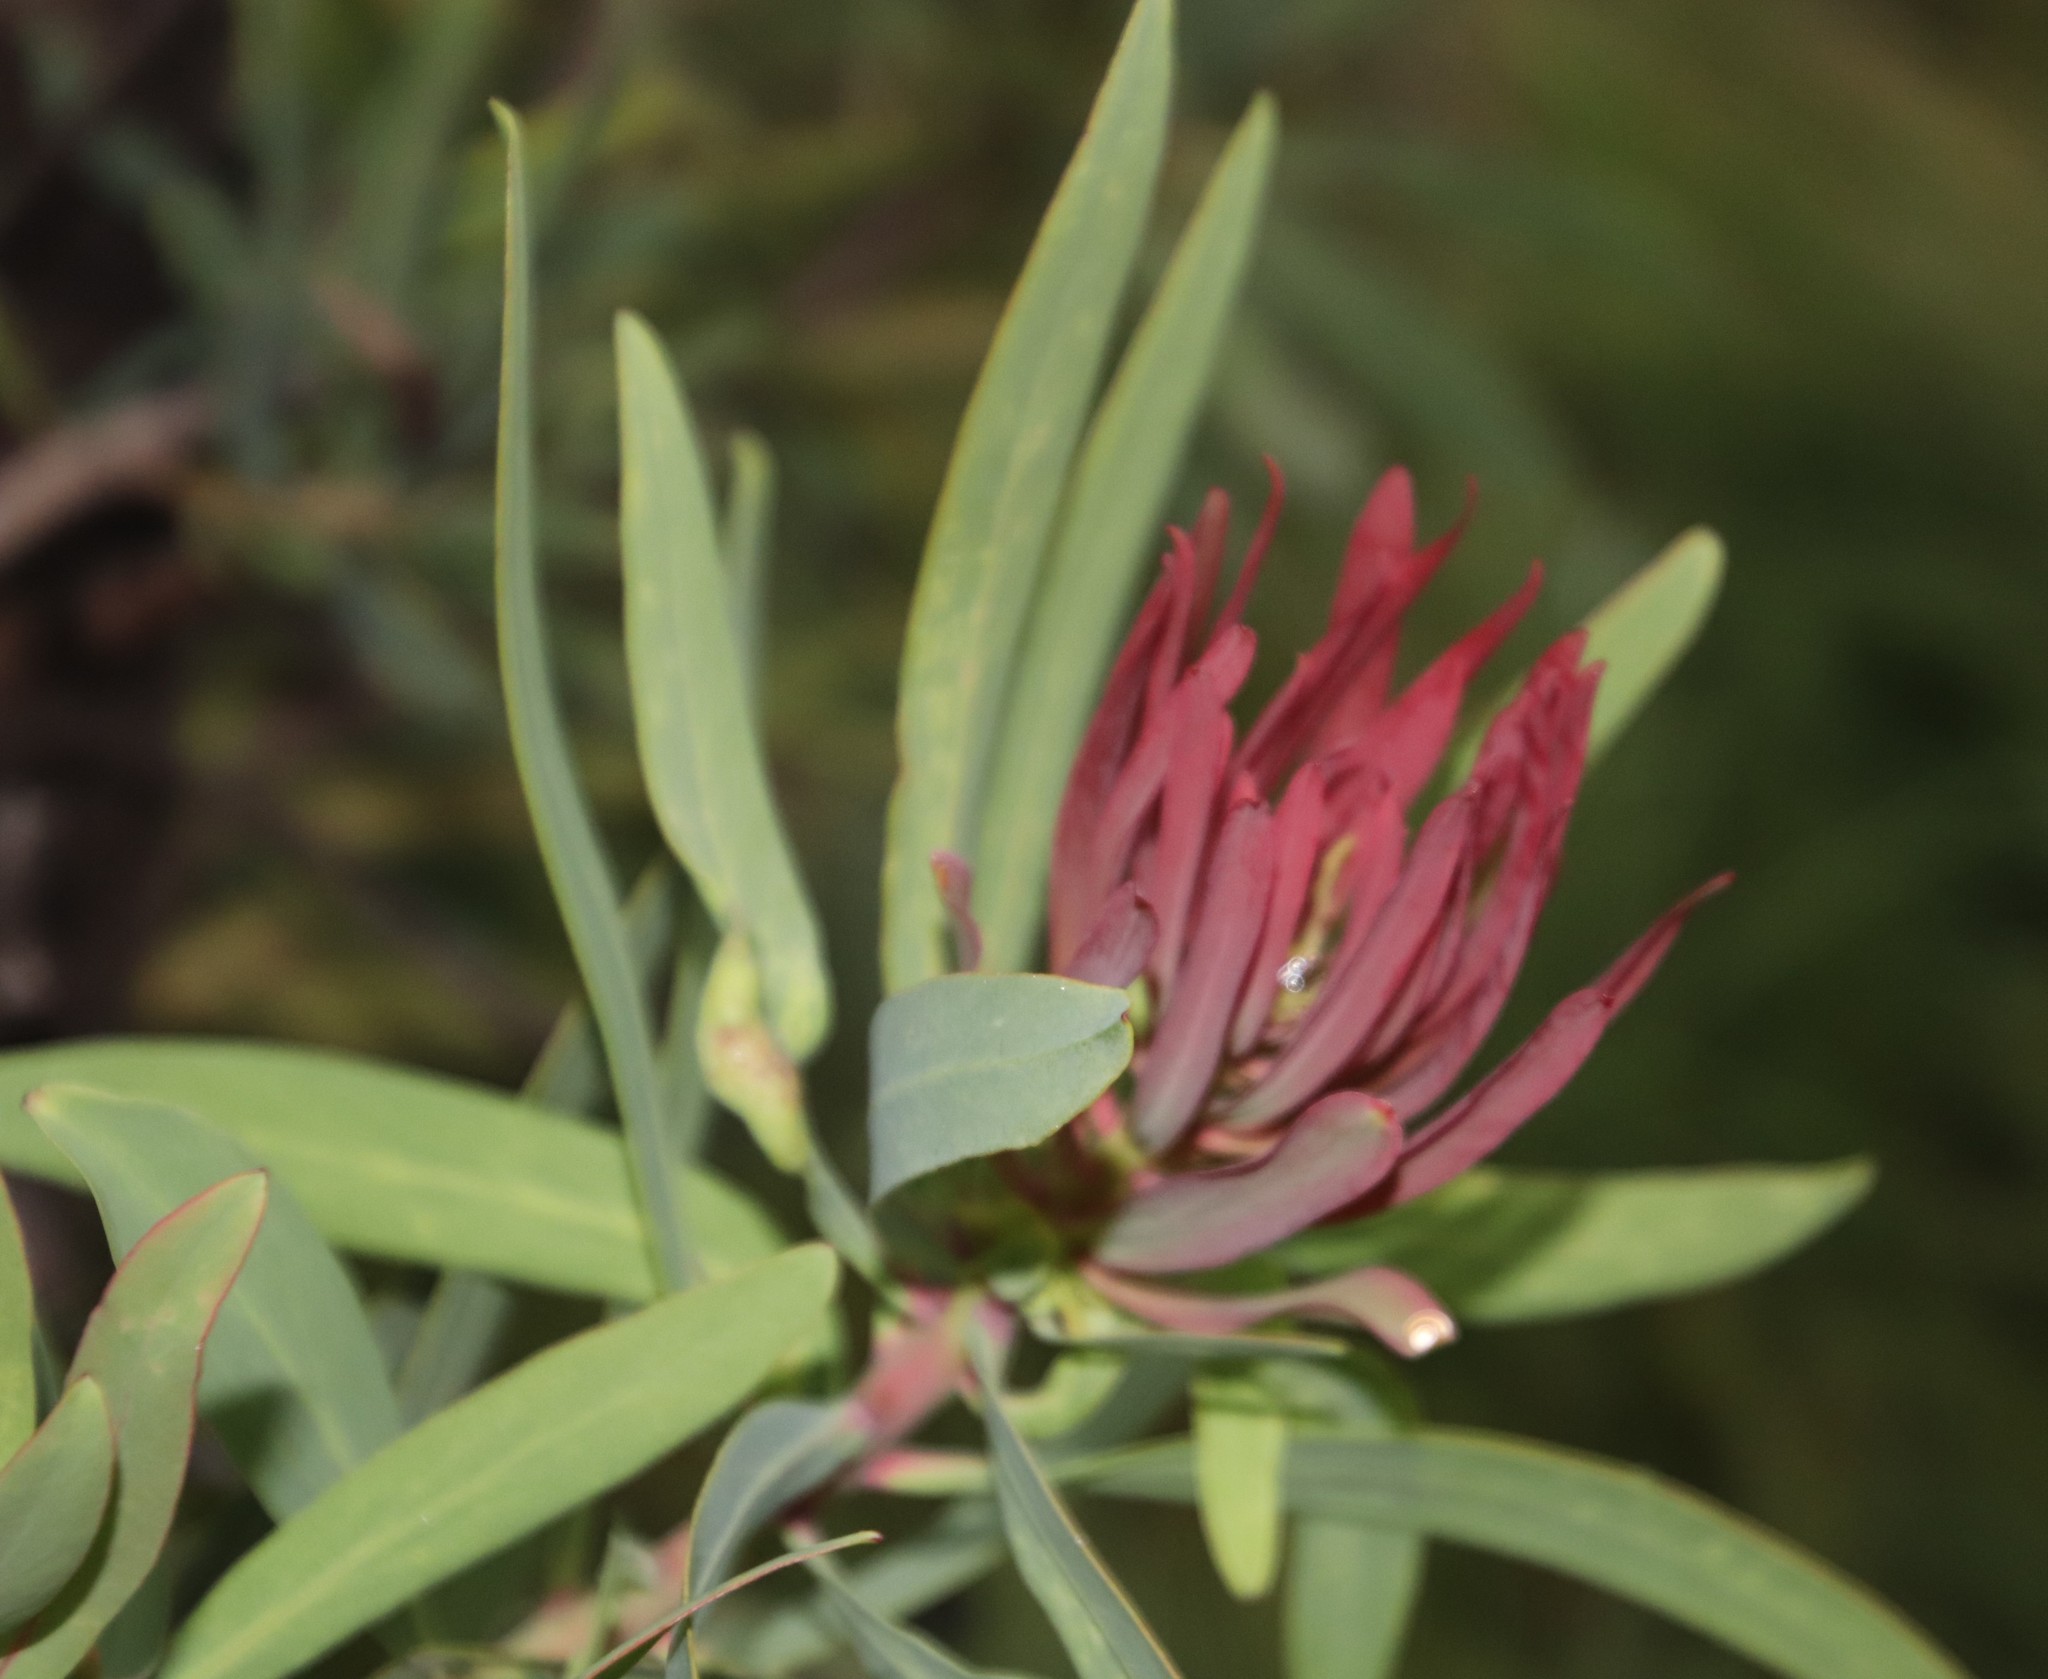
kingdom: Plantae
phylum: Tracheophyta
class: Magnoliopsida
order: Proteales
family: Proteaceae
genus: Protea
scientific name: Protea caffra
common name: Common sugarbush
